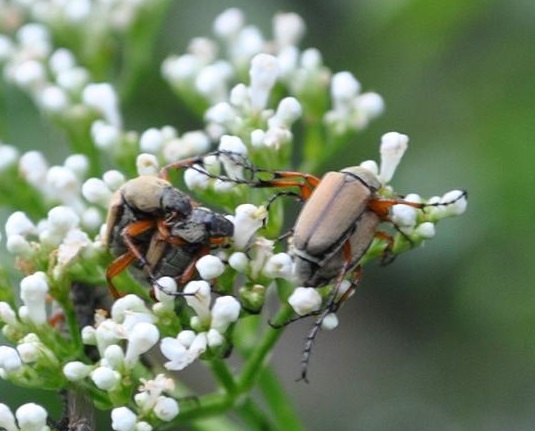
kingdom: Animalia
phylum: Arthropoda
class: Insecta
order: Coleoptera
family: Scarabaeidae
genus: Macrodactylus
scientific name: Macrodactylus subspinosus
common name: American rose chafer
